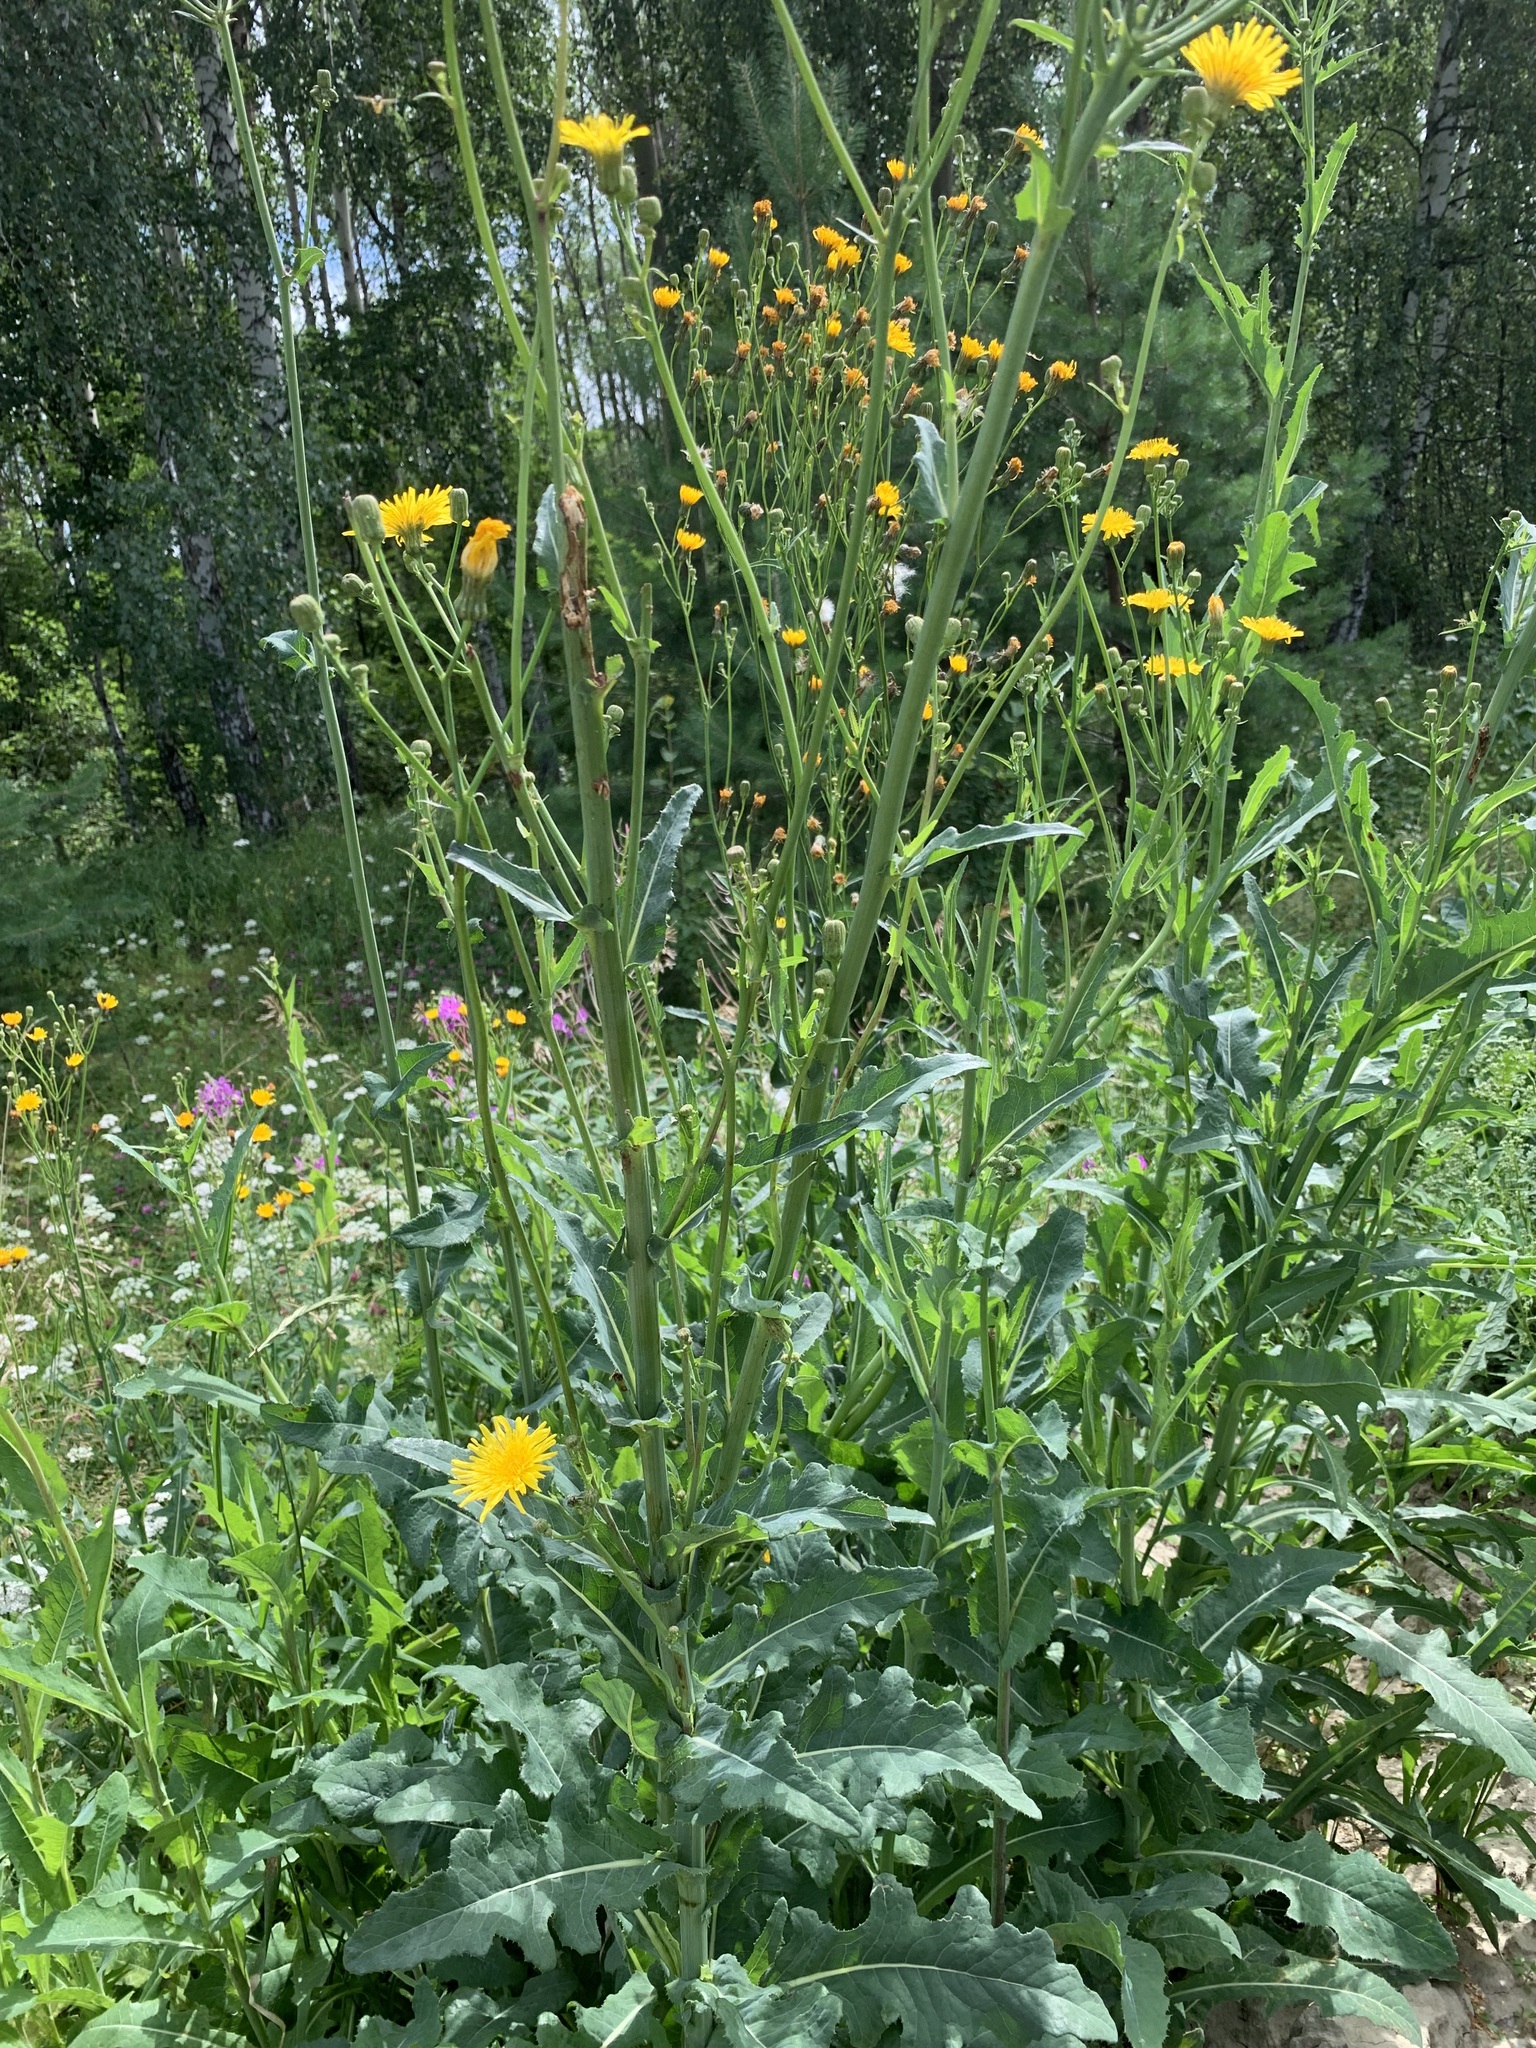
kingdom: Plantae
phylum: Tracheophyta
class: Magnoliopsida
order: Asterales
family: Asteraceae
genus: Sonchus
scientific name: Sonchus arvensis
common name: Perennial sow-thistle
